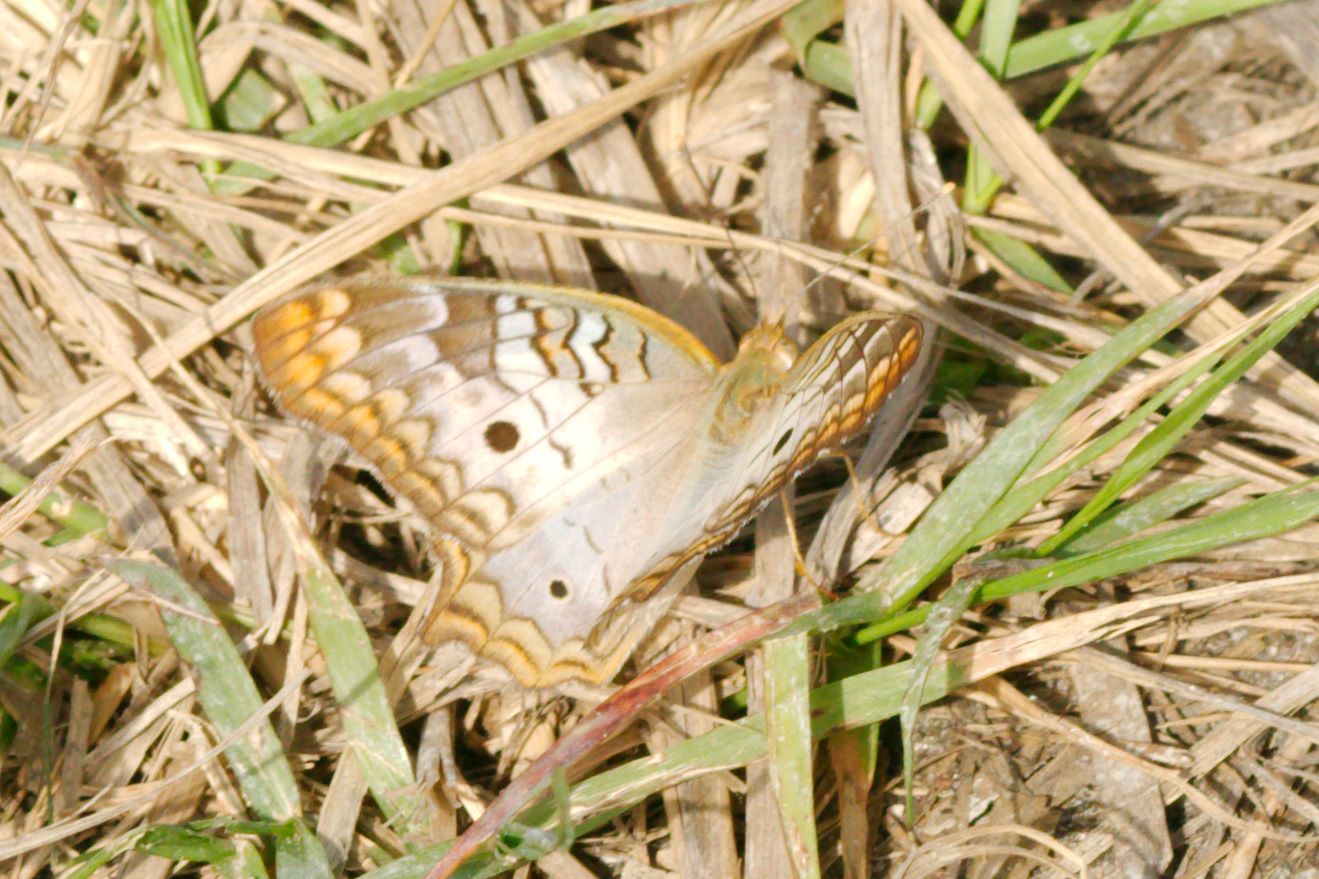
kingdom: Animalia
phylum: Arthropoda
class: Insecta
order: Lepidoptera
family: Nymphalidae
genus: Anartia
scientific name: Anartia jatrophae
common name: White peacock
